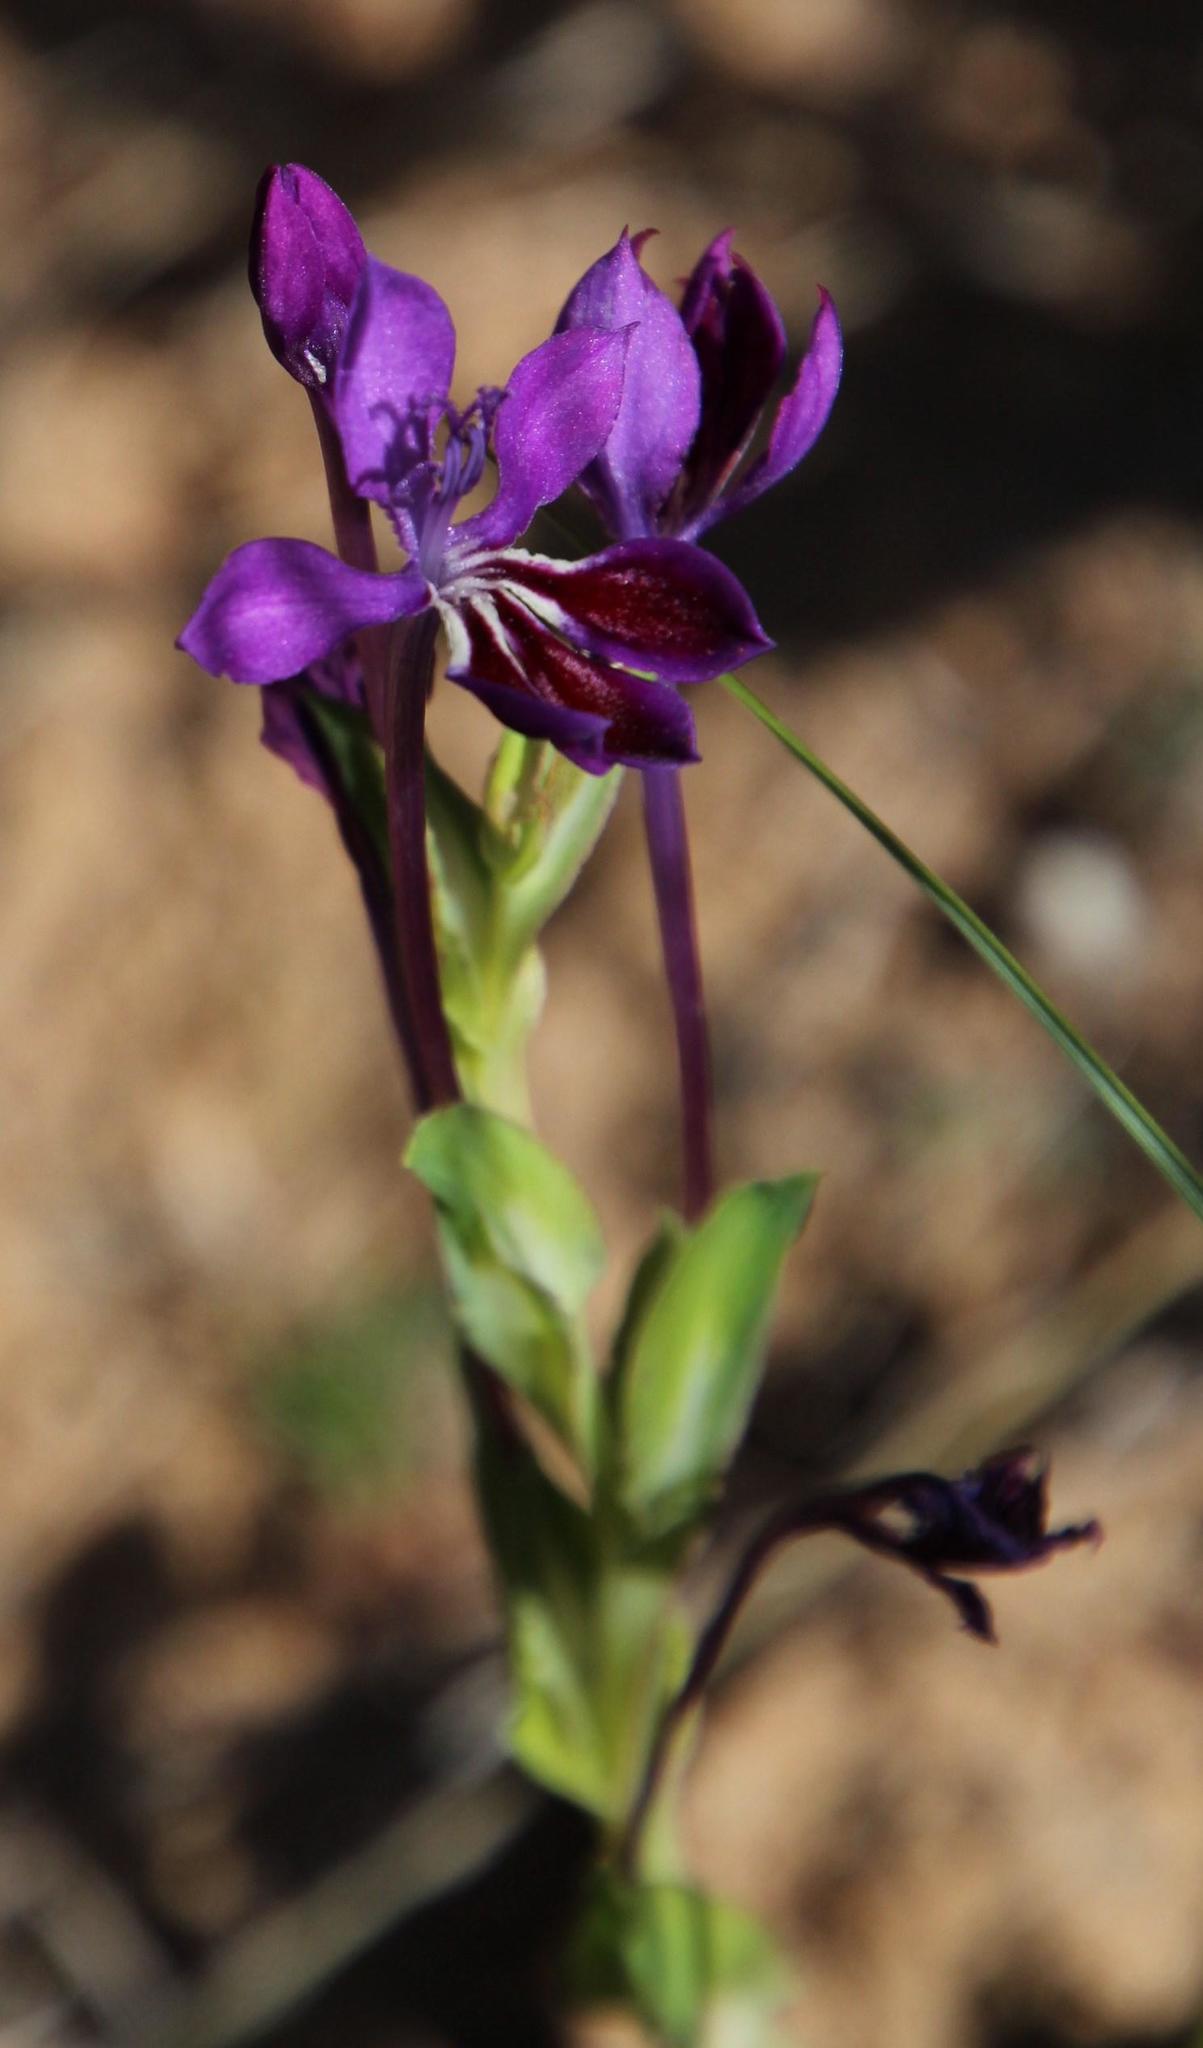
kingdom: Plantae
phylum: Tracheophyta
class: Liliopsida
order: Asparagales
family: Iridaceae
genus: Lapeirousia
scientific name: Lapeirousia jacquinii
